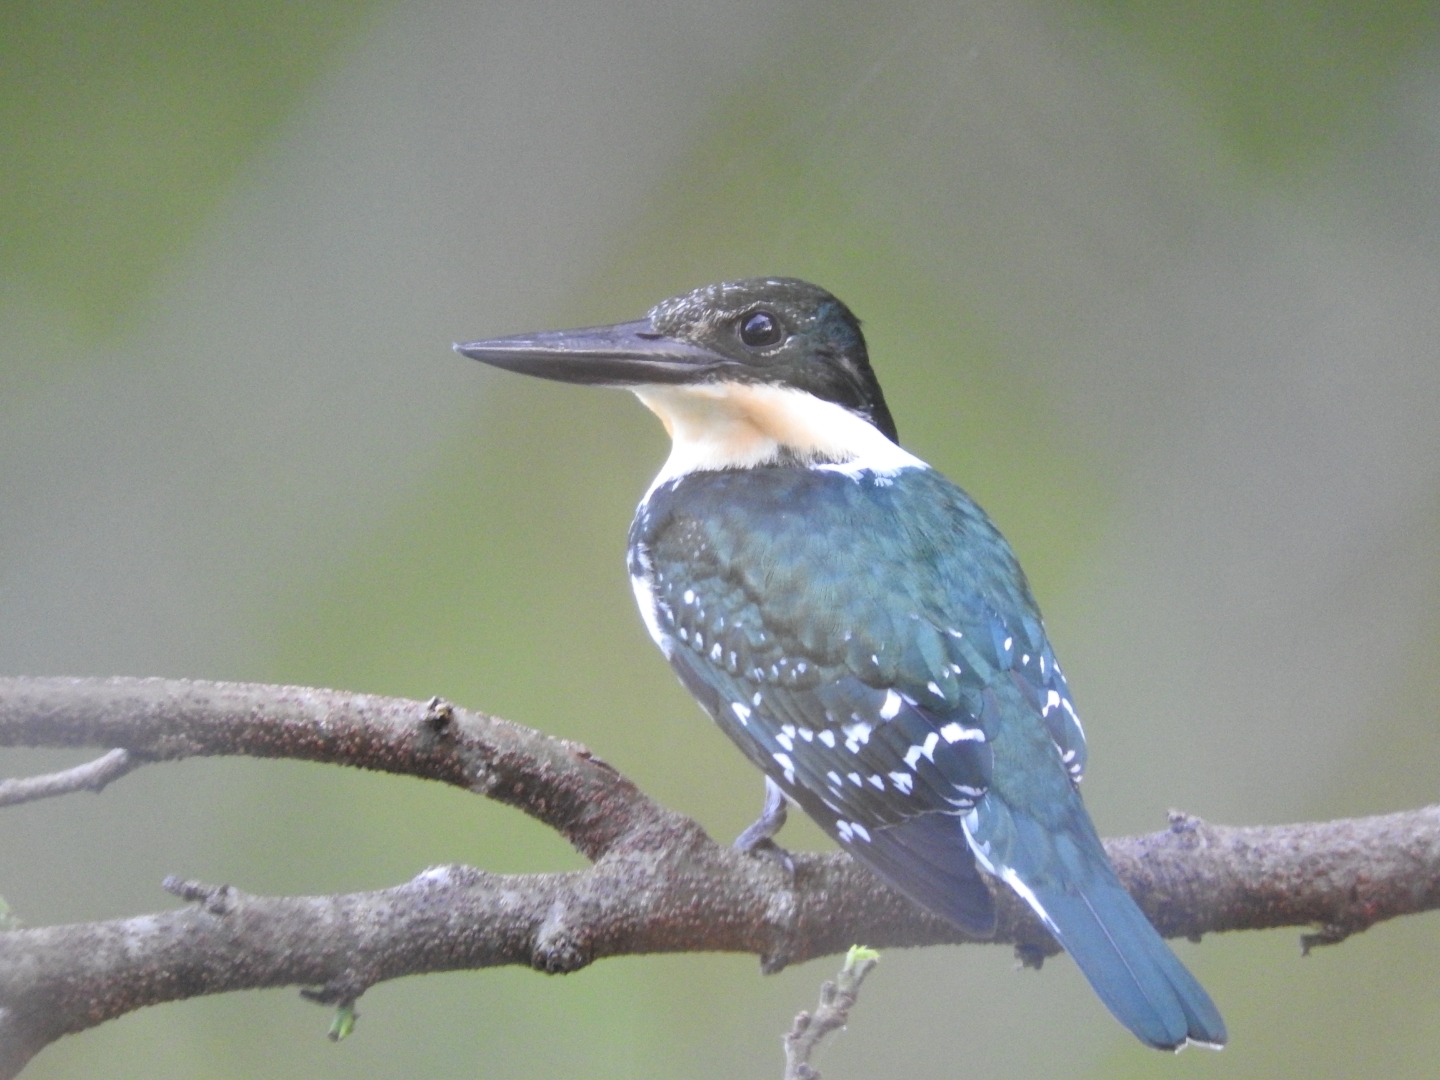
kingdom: Animalia
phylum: Chordata
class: Aves
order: Coraciiformes
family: Alcedinidae
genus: Chloroceryle
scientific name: Chloroceryle americana
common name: Green kingfisher
